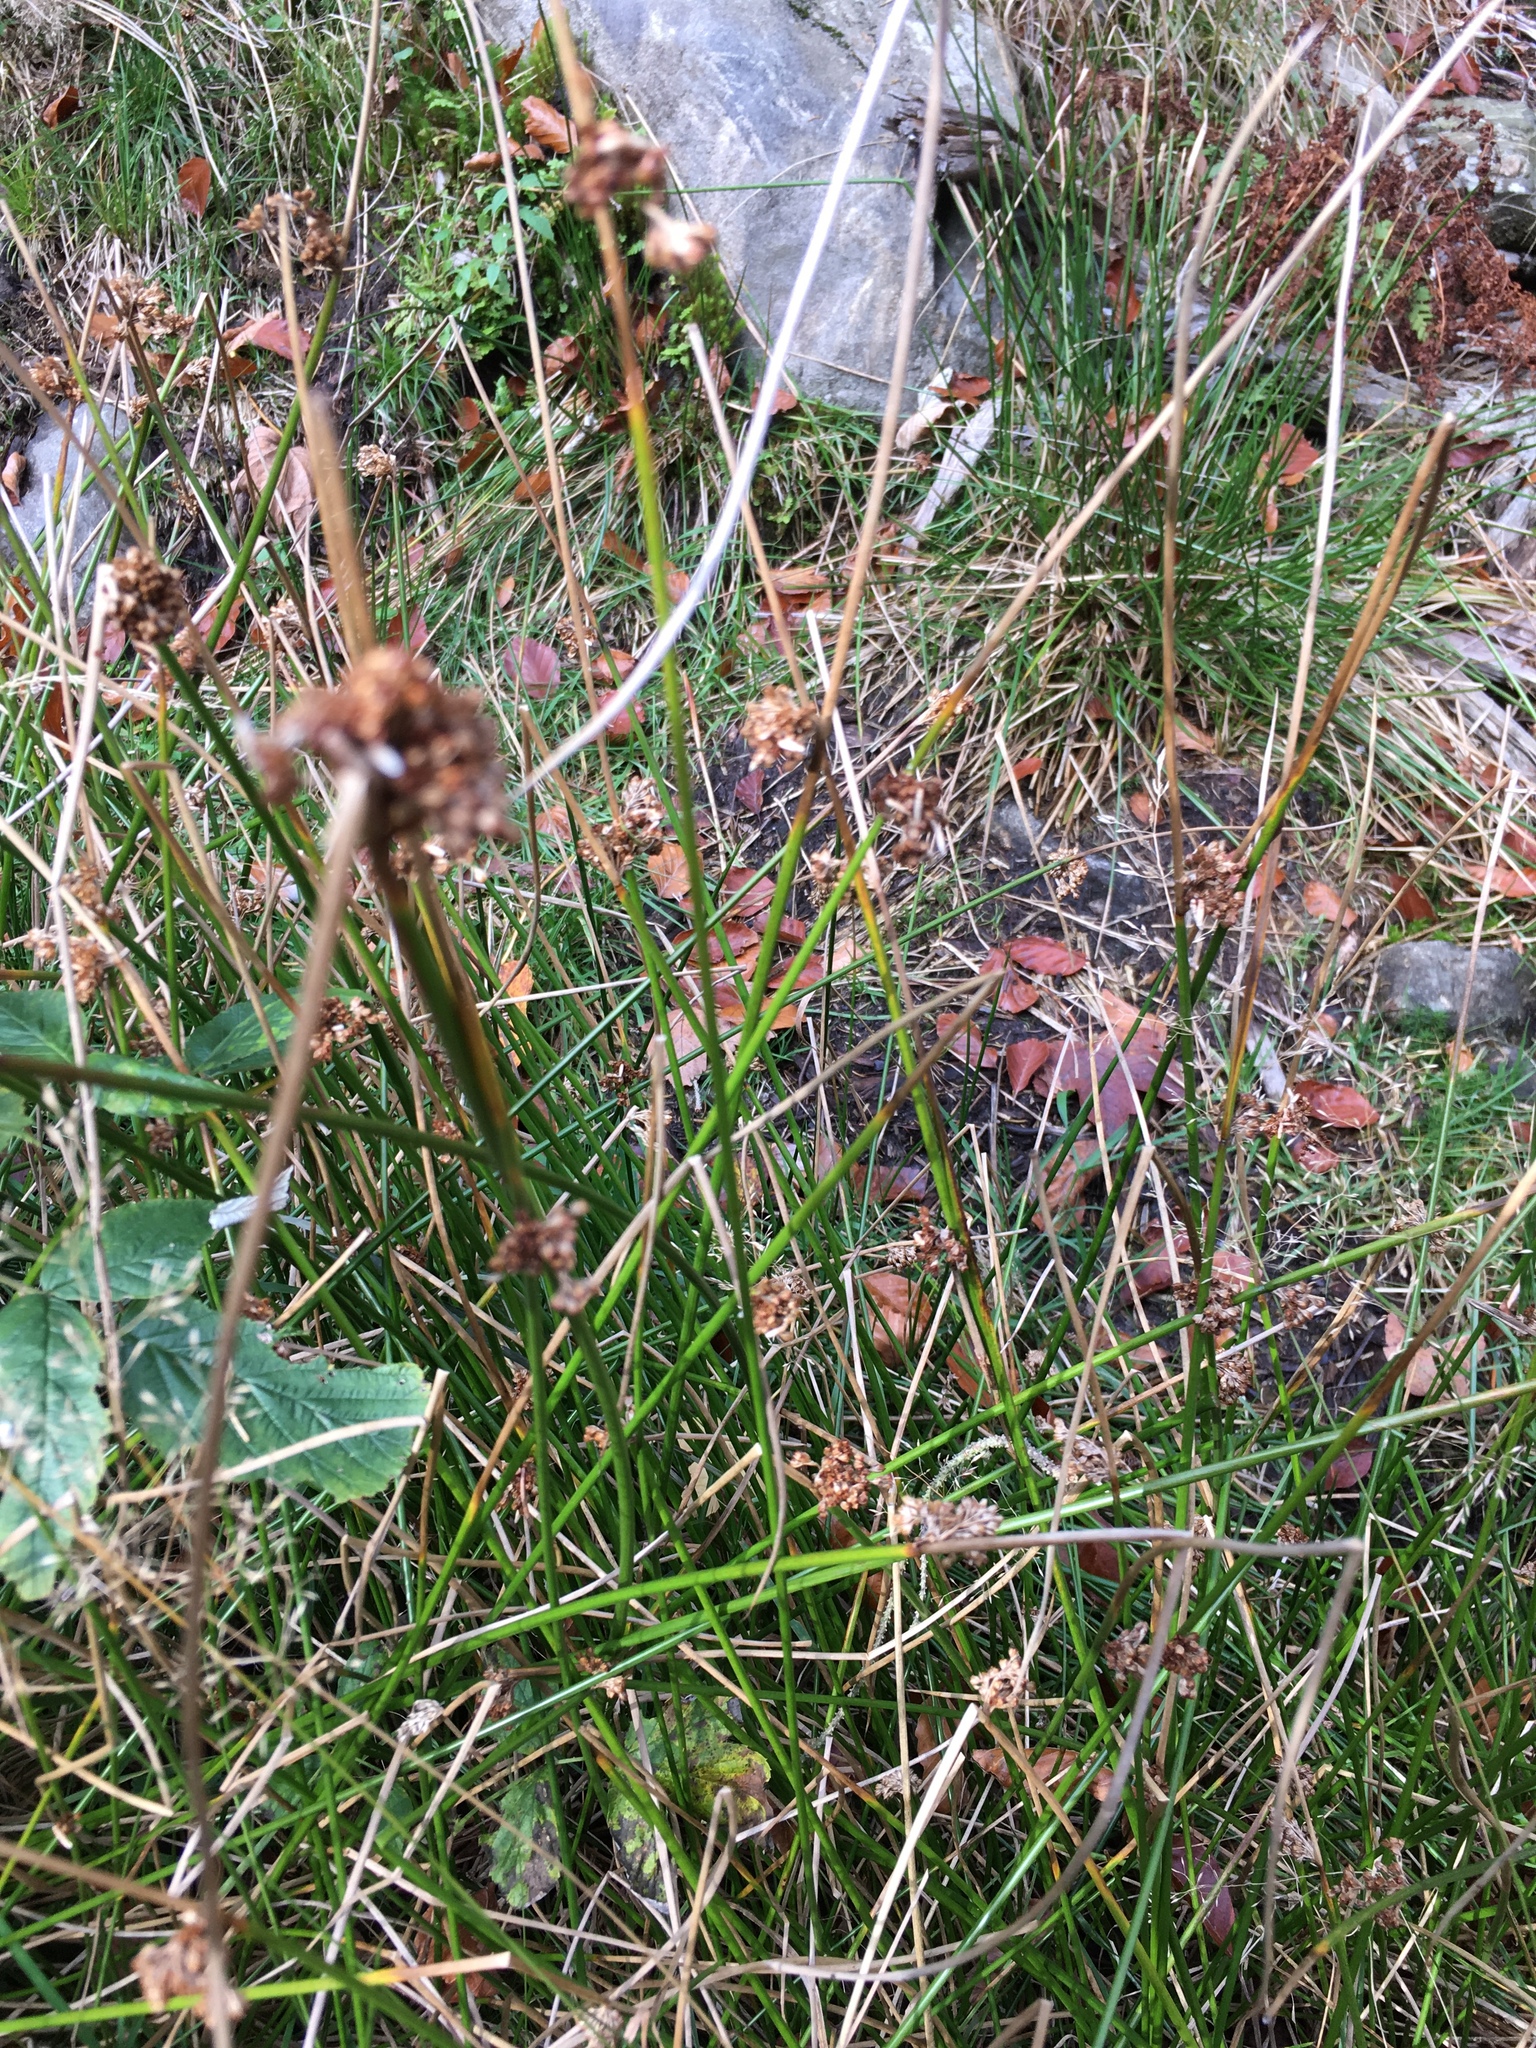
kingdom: Plantae
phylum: Tracheophyta
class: Liliopsida
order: Poales
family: Juncaceae
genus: Juncus
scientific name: Juncus effusus
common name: Soft rush
